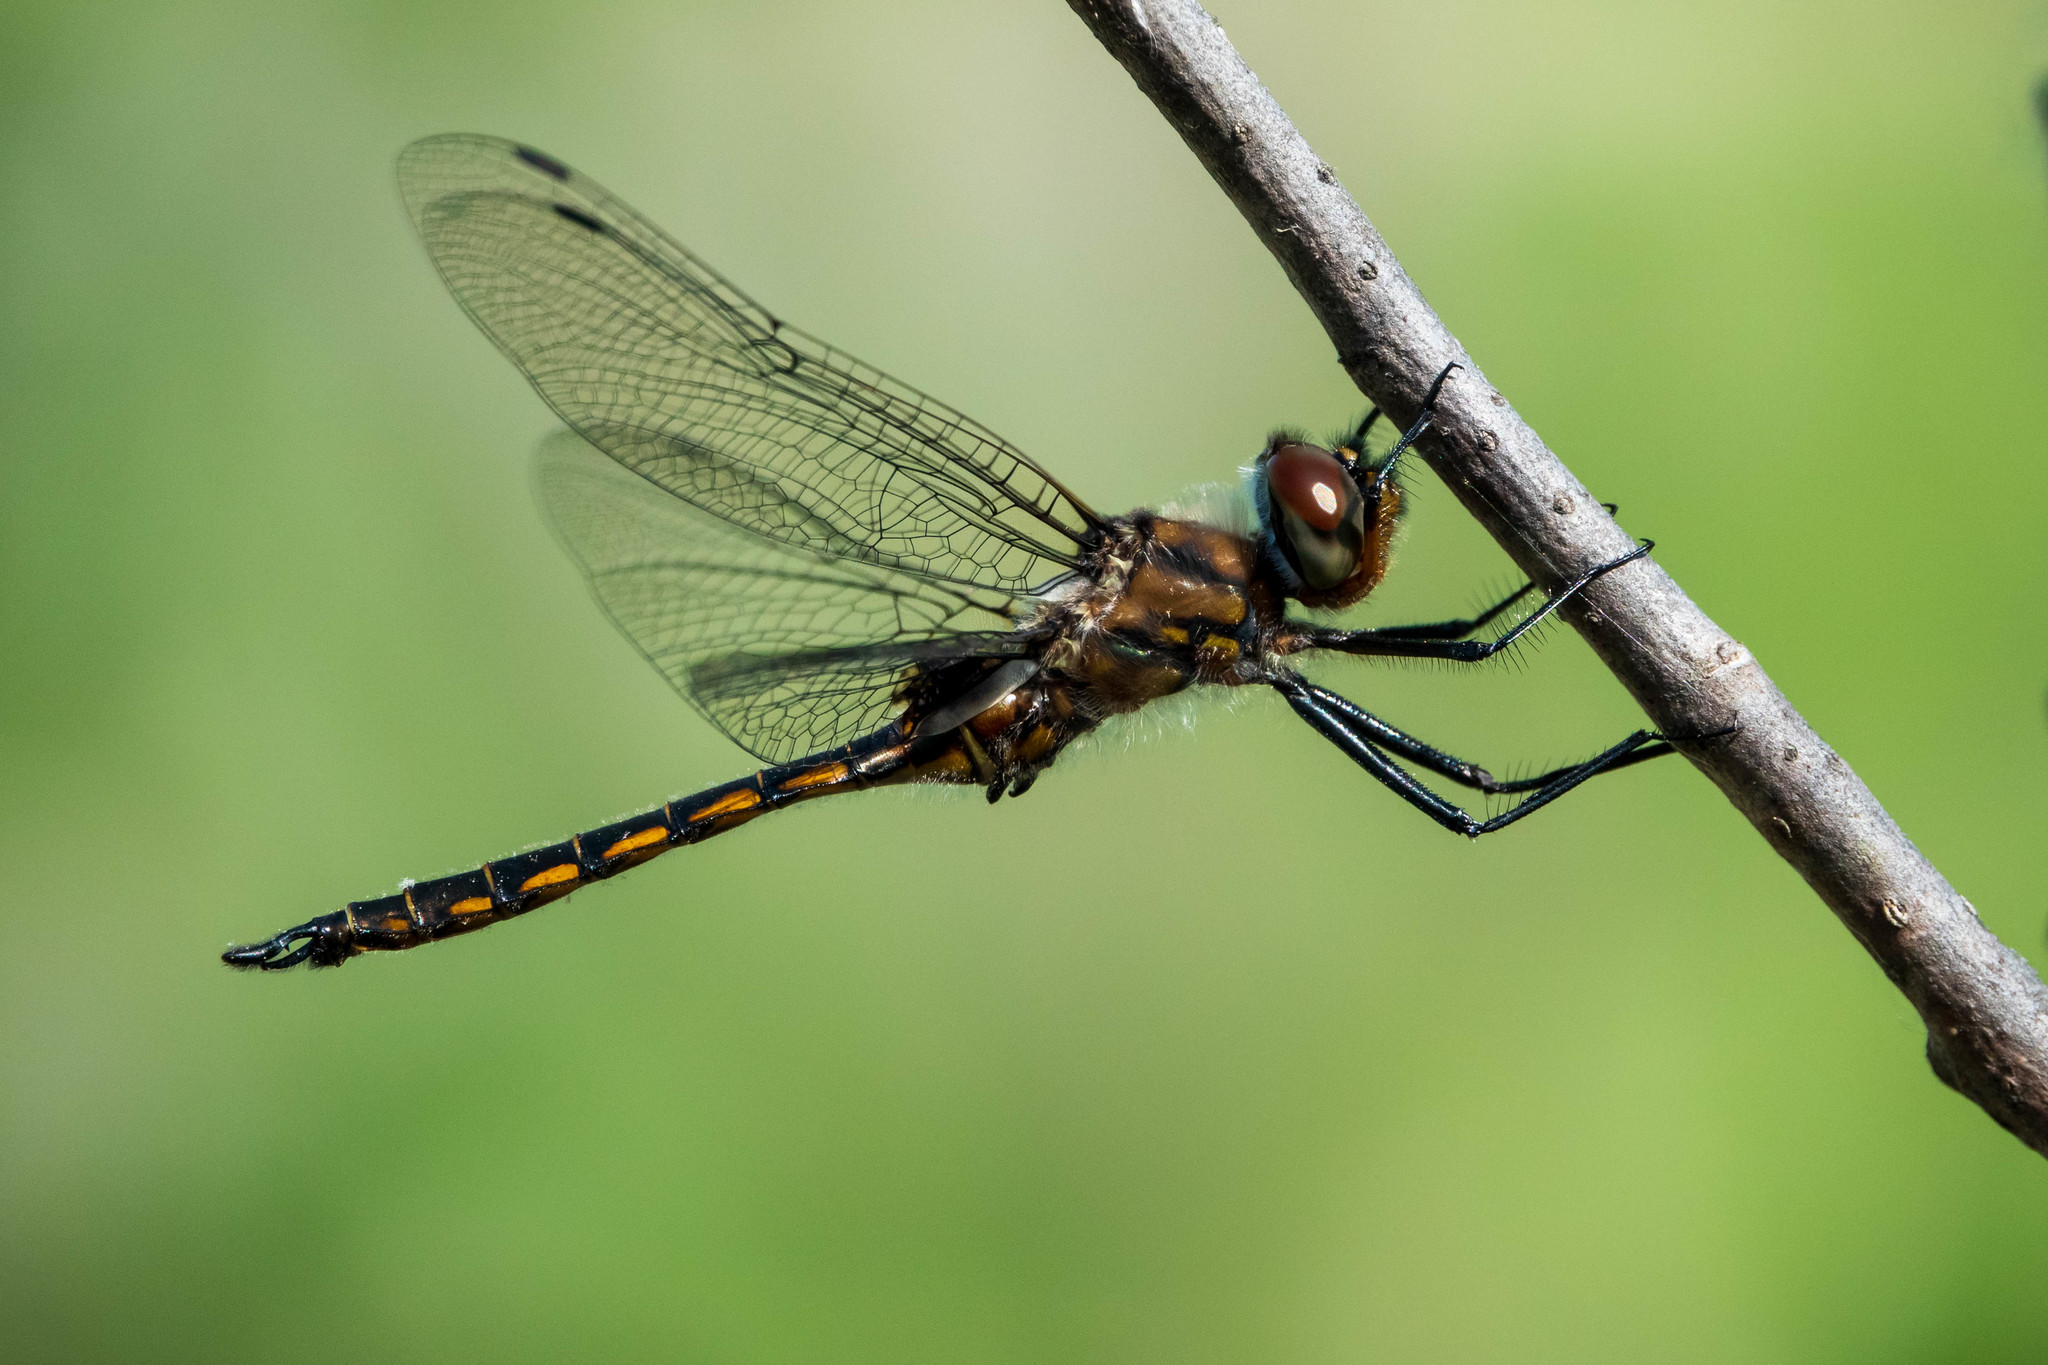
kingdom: Animalia
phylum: Arthropoda
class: Insecta
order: Odonata
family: Corduliidae
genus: Epitheca
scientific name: Epitheca spinigera
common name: Spiny baskettail
